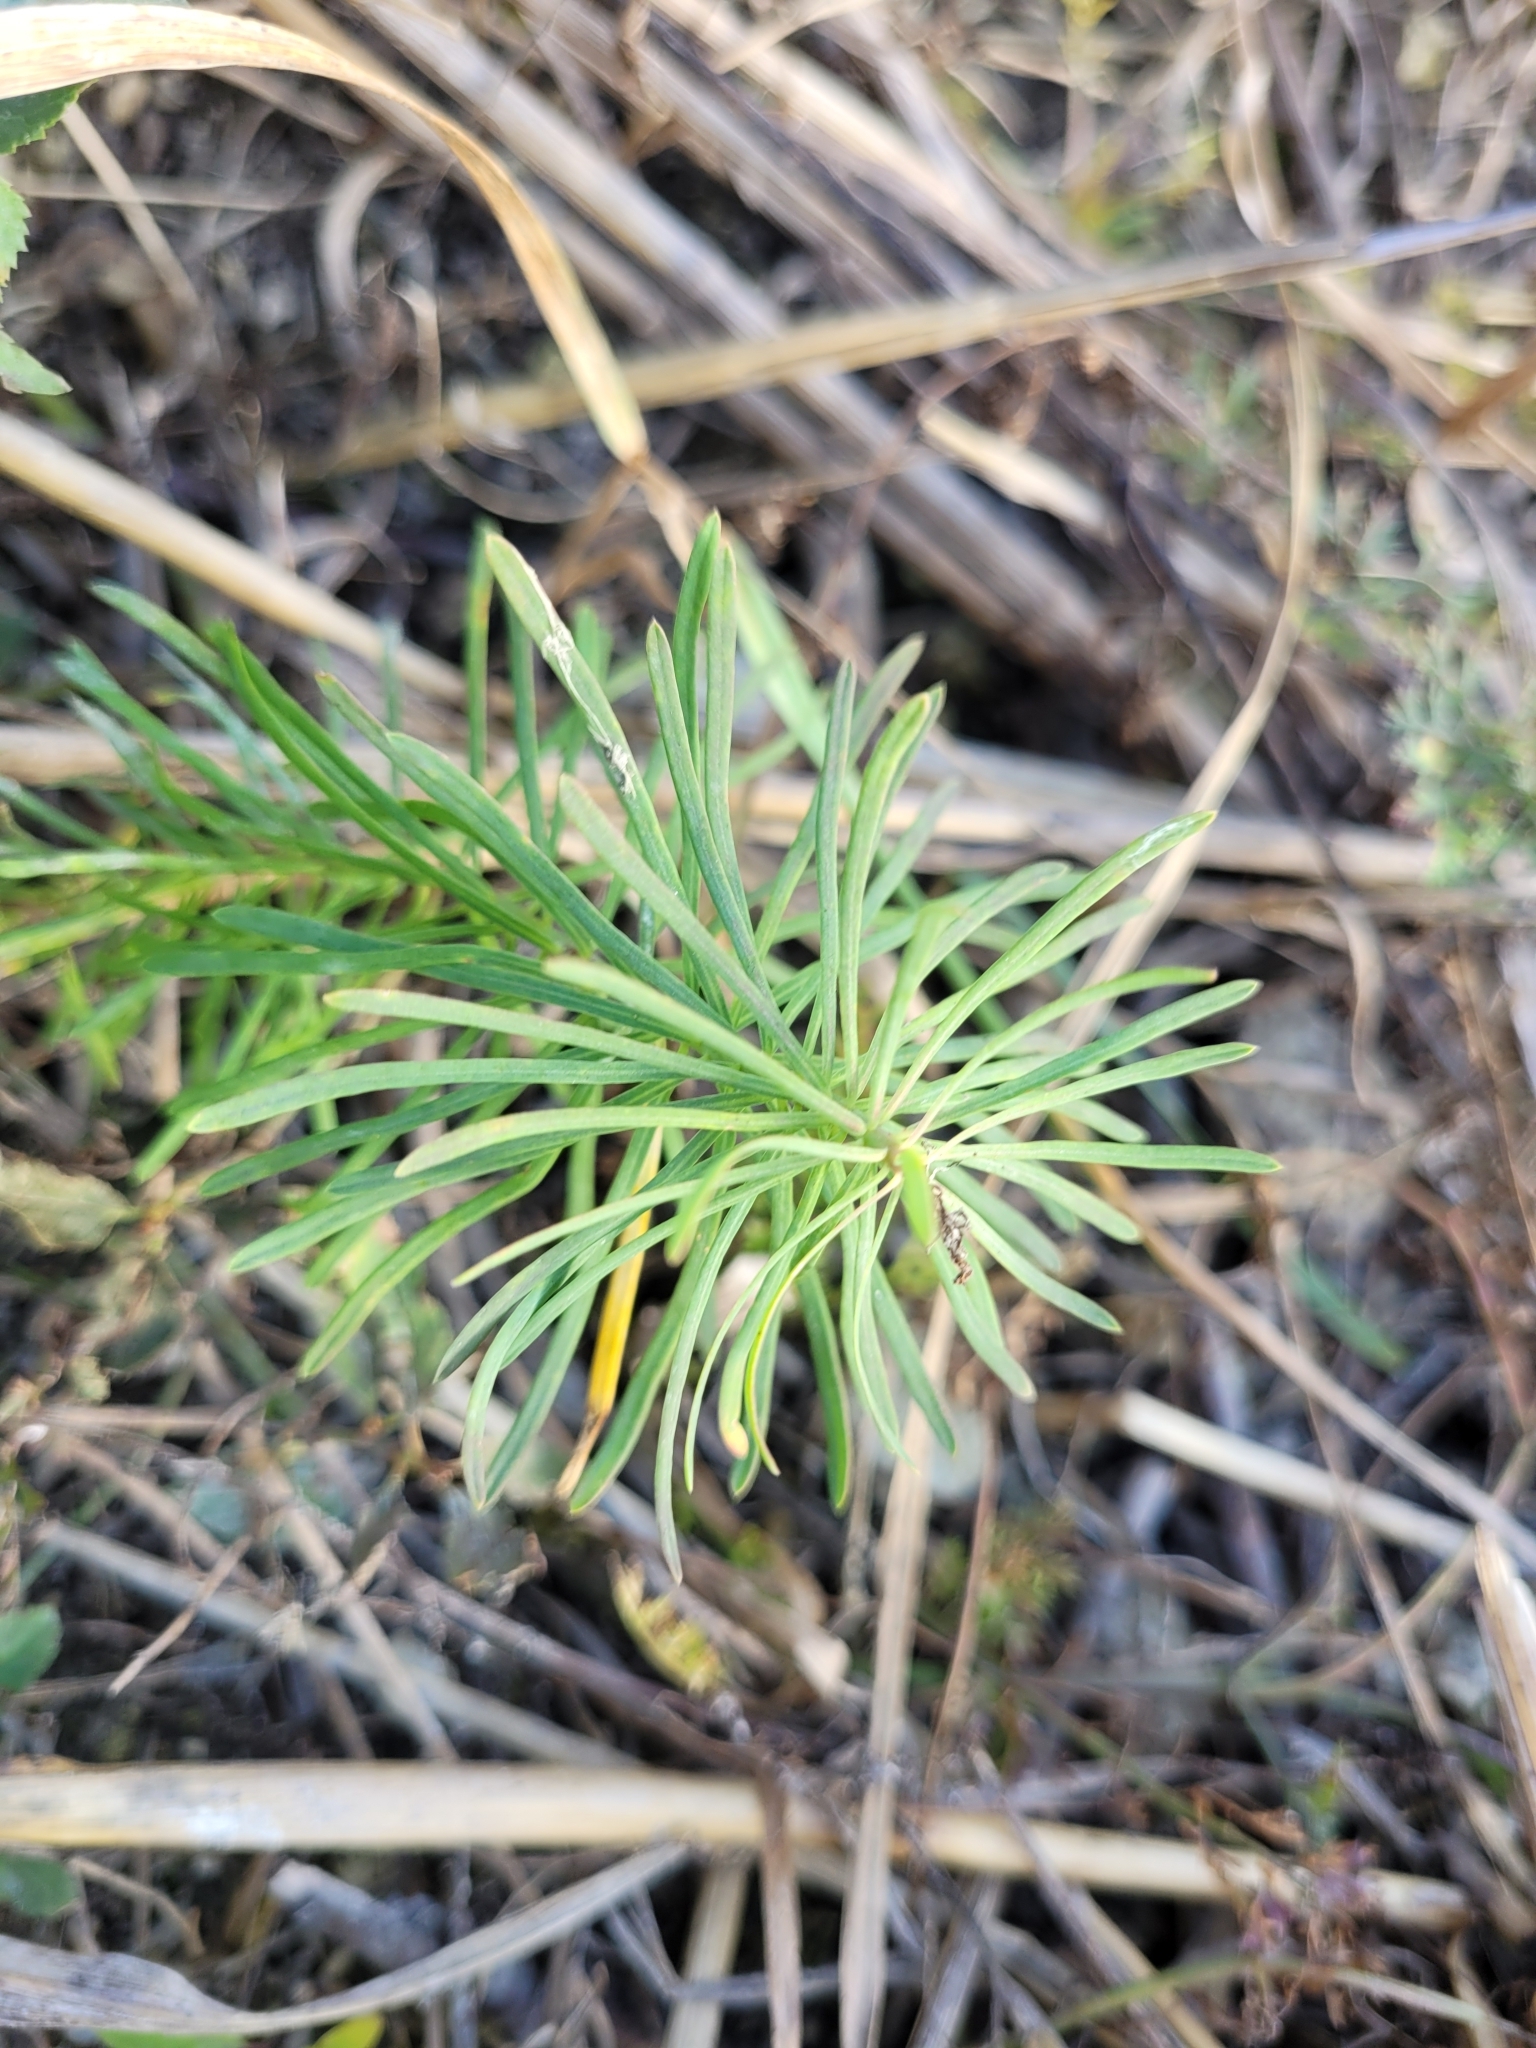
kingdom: Plantae
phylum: Tracheophyta
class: Magnoliopsida
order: Malpighiales
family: Euphorbiaceae
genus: Euphorbia
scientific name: Euphorbia cyparissias
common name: Cypress spurge
